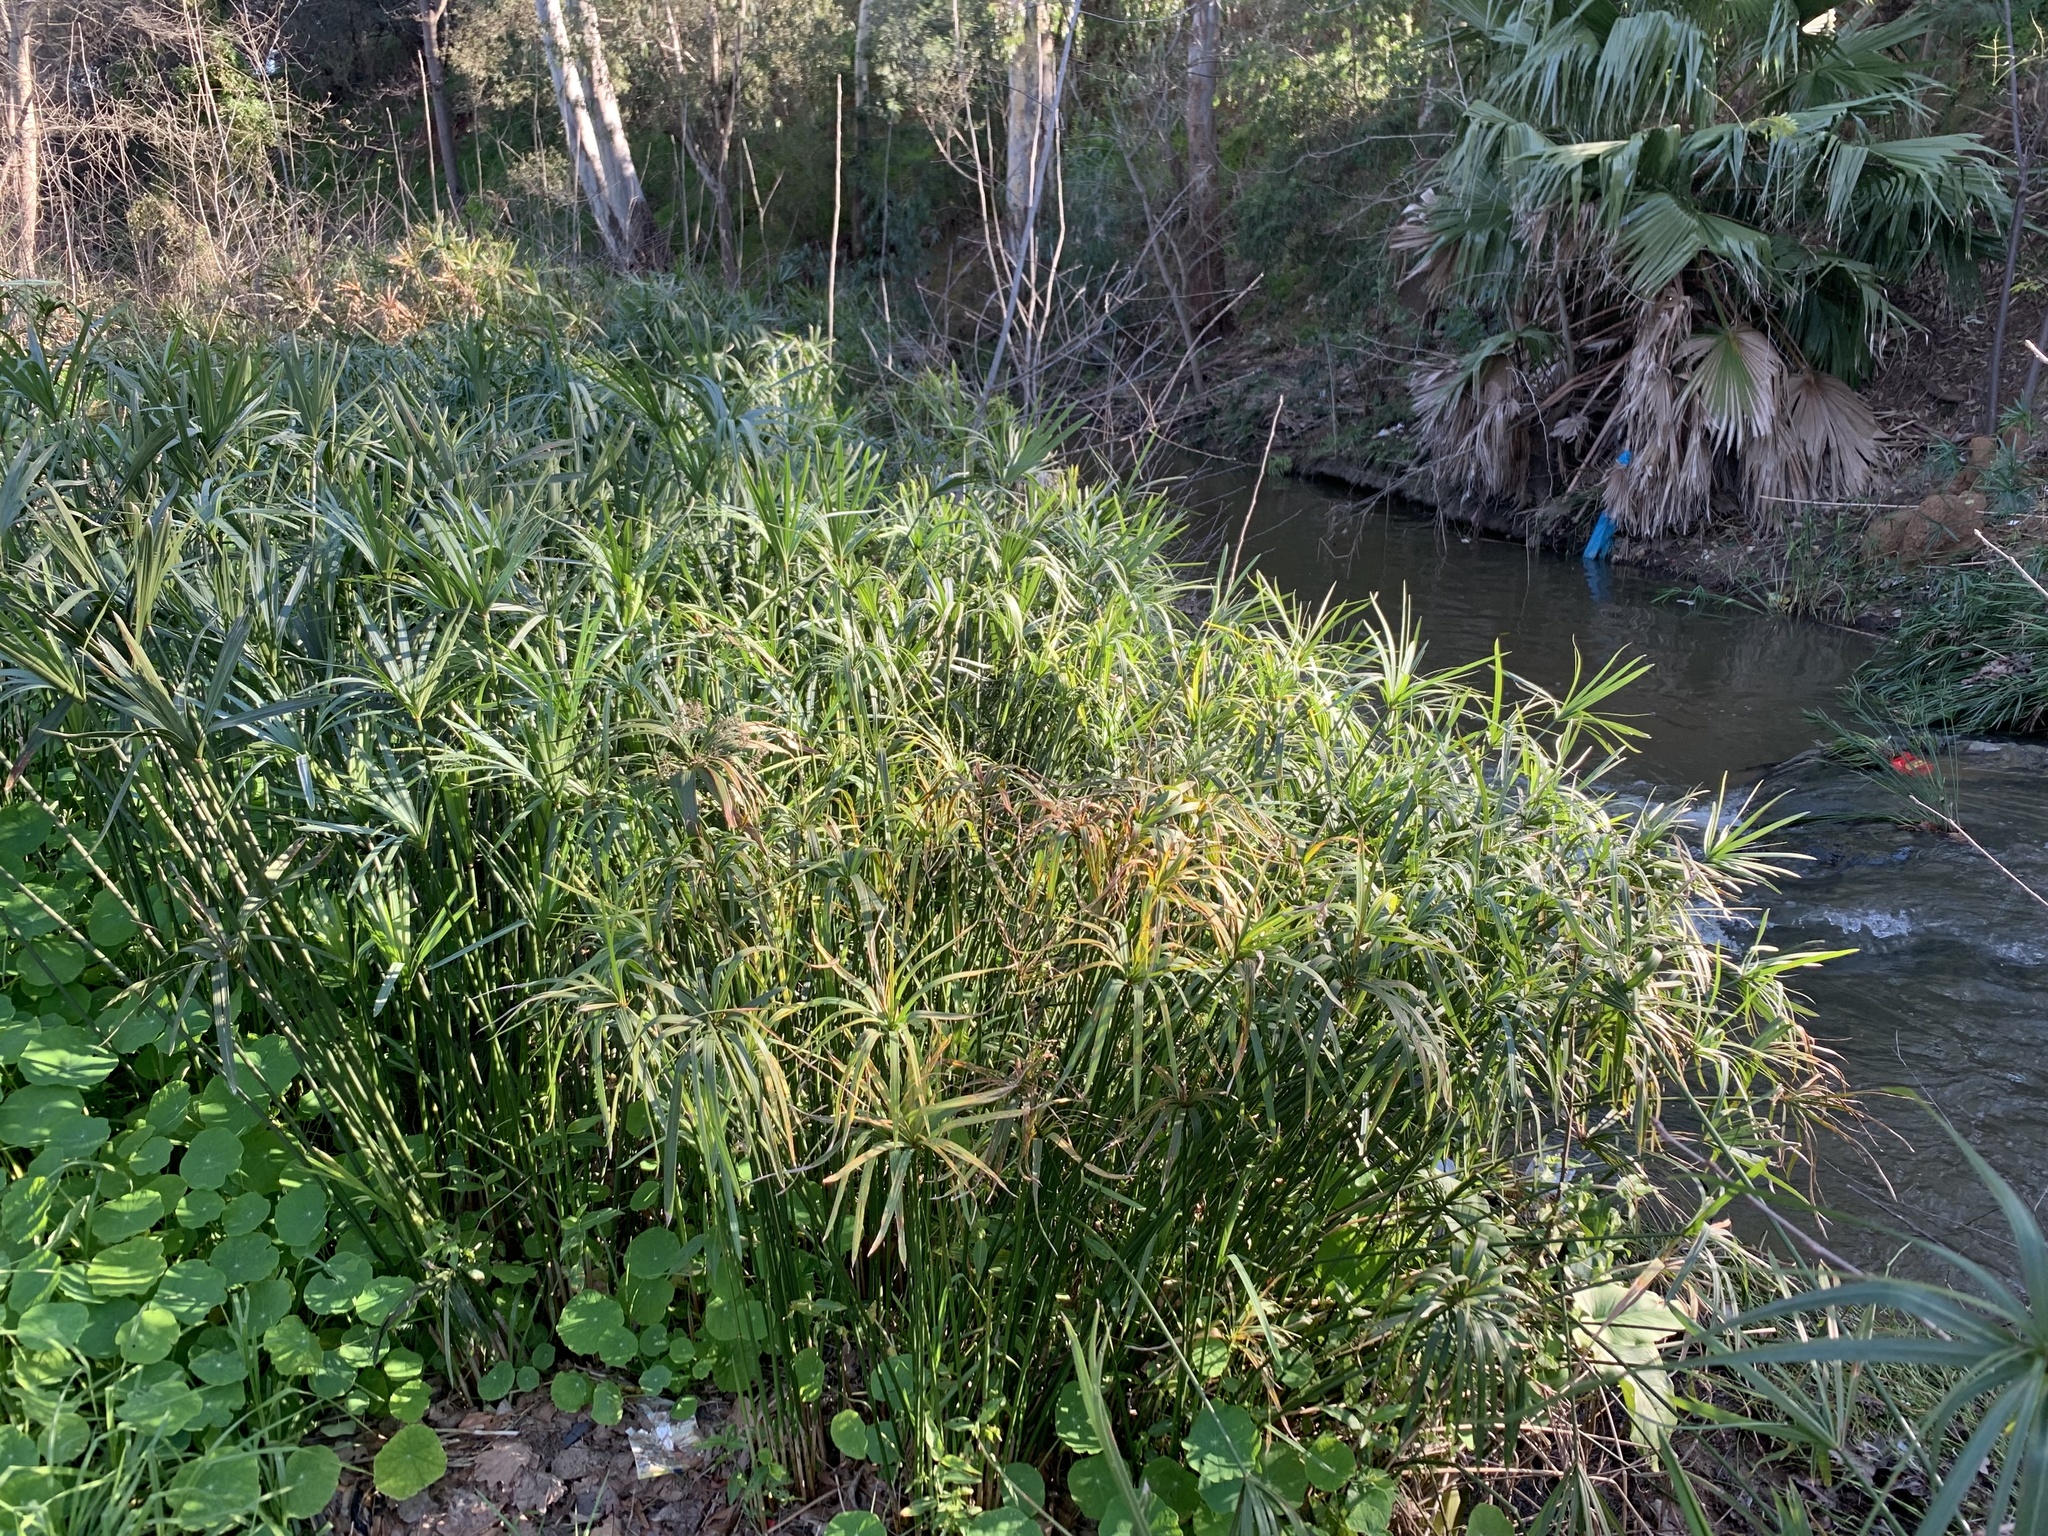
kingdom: Plantae
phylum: Tracheophyta
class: Liliopsida
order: Poales
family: Cyperaceae
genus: Cyperus
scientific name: Cyperus textilis
